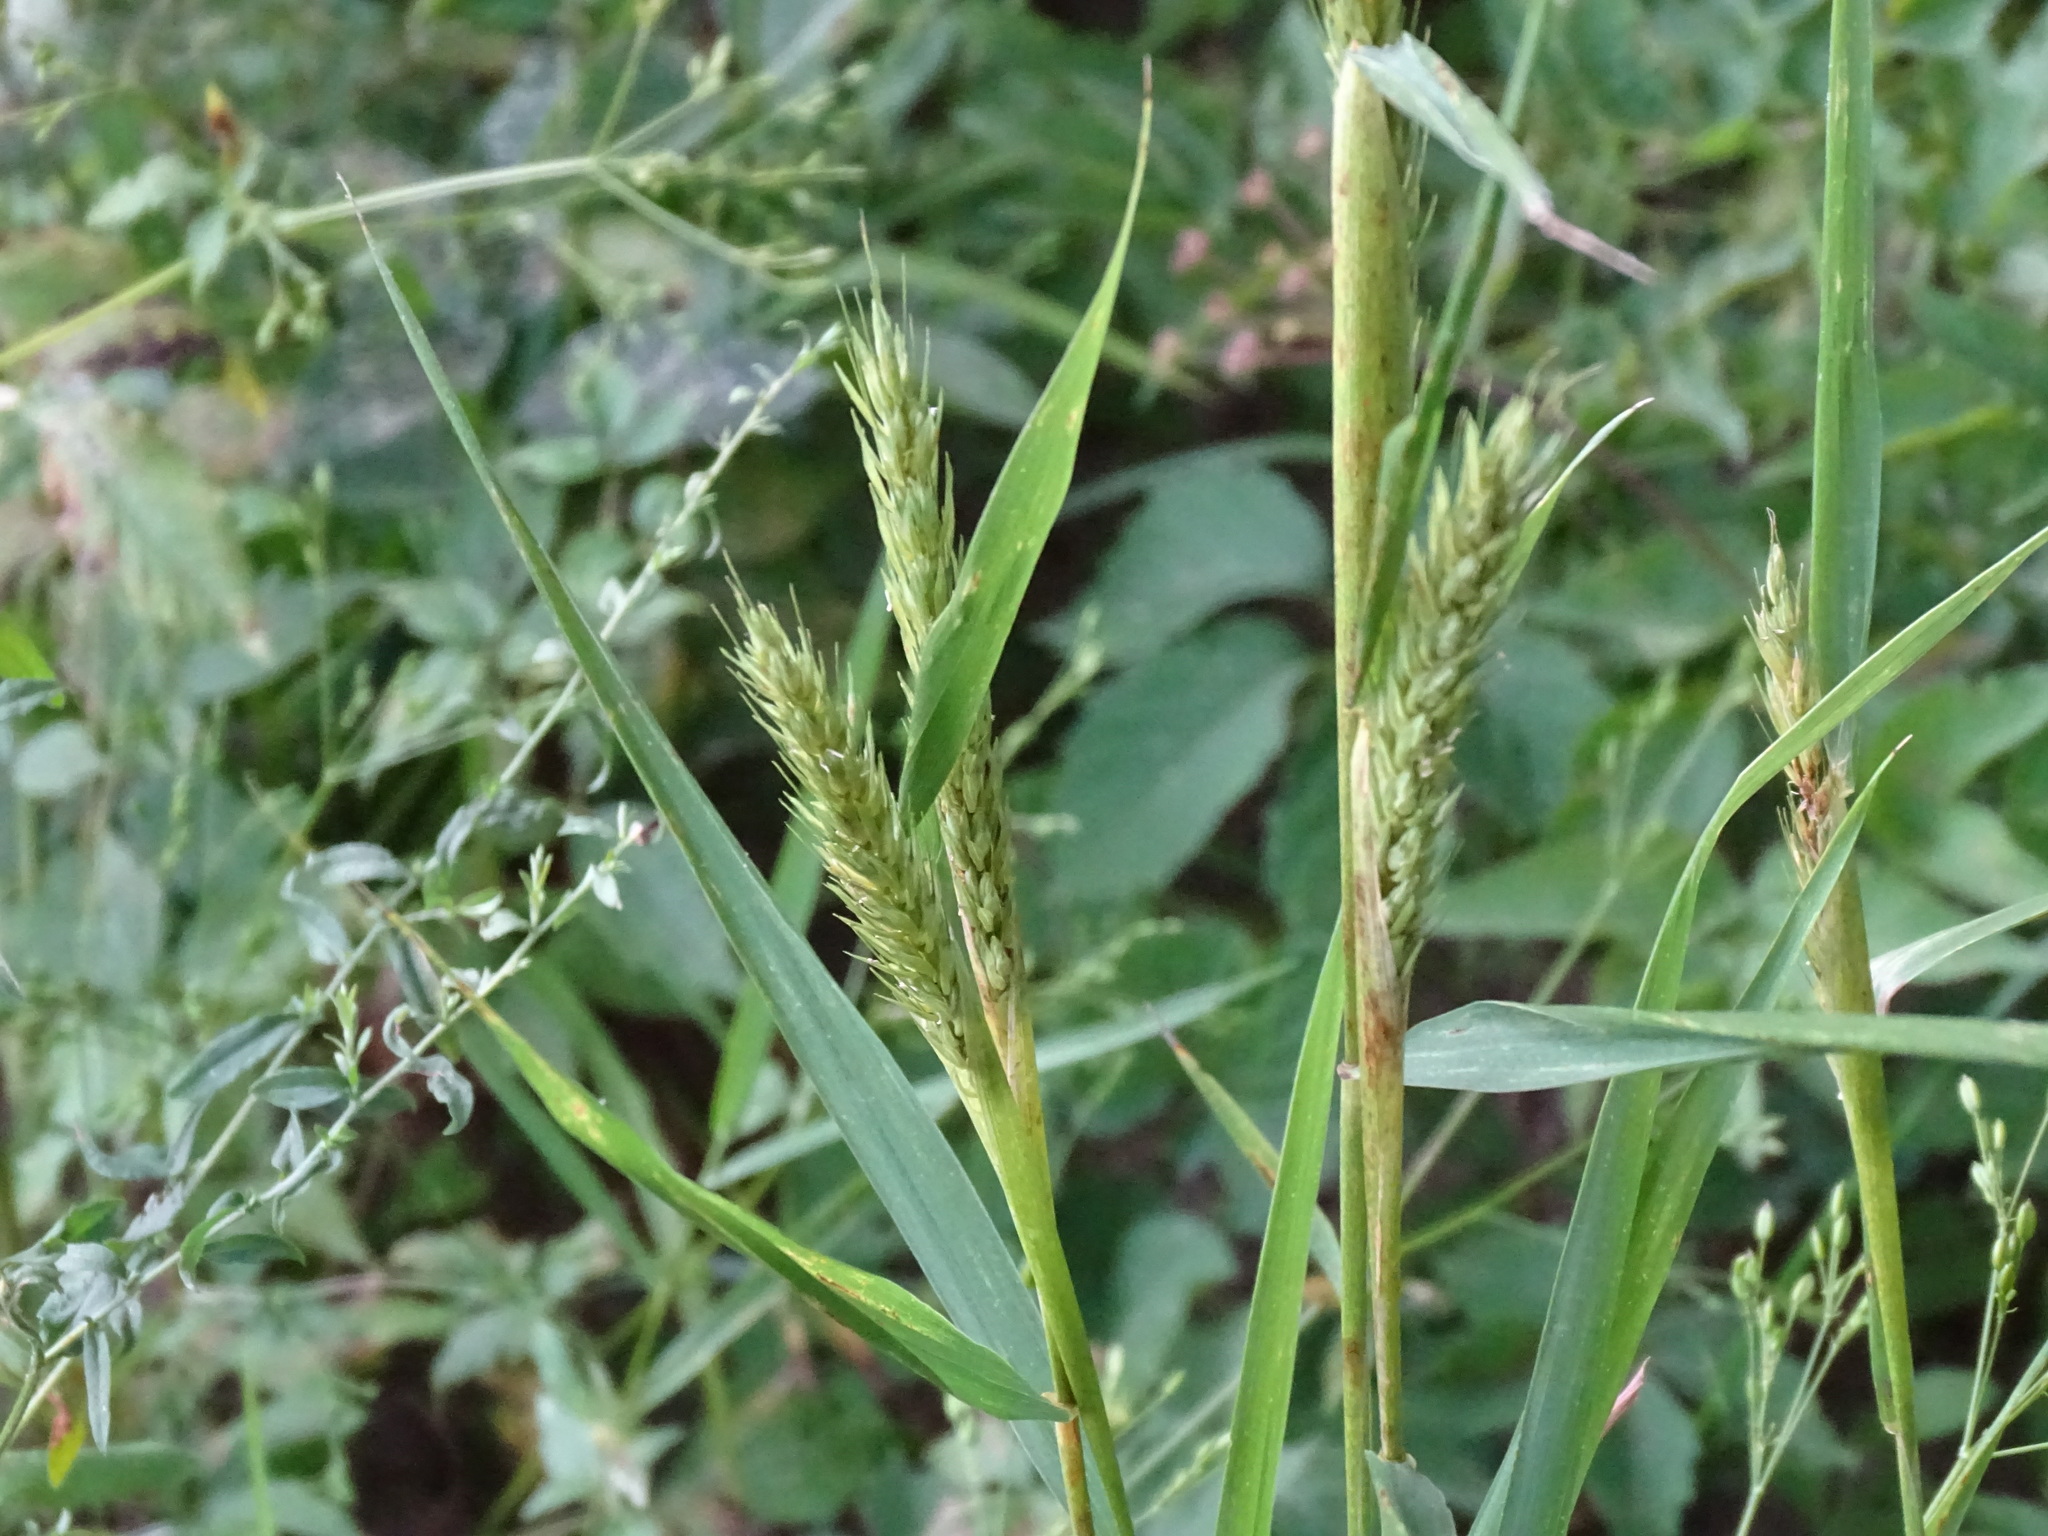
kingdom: Plantae
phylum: Tracheophyta
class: Liliopsida
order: Poales
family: Poaceae
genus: Elymus
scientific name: Elymus virginicus
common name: Common eastern wildrye
